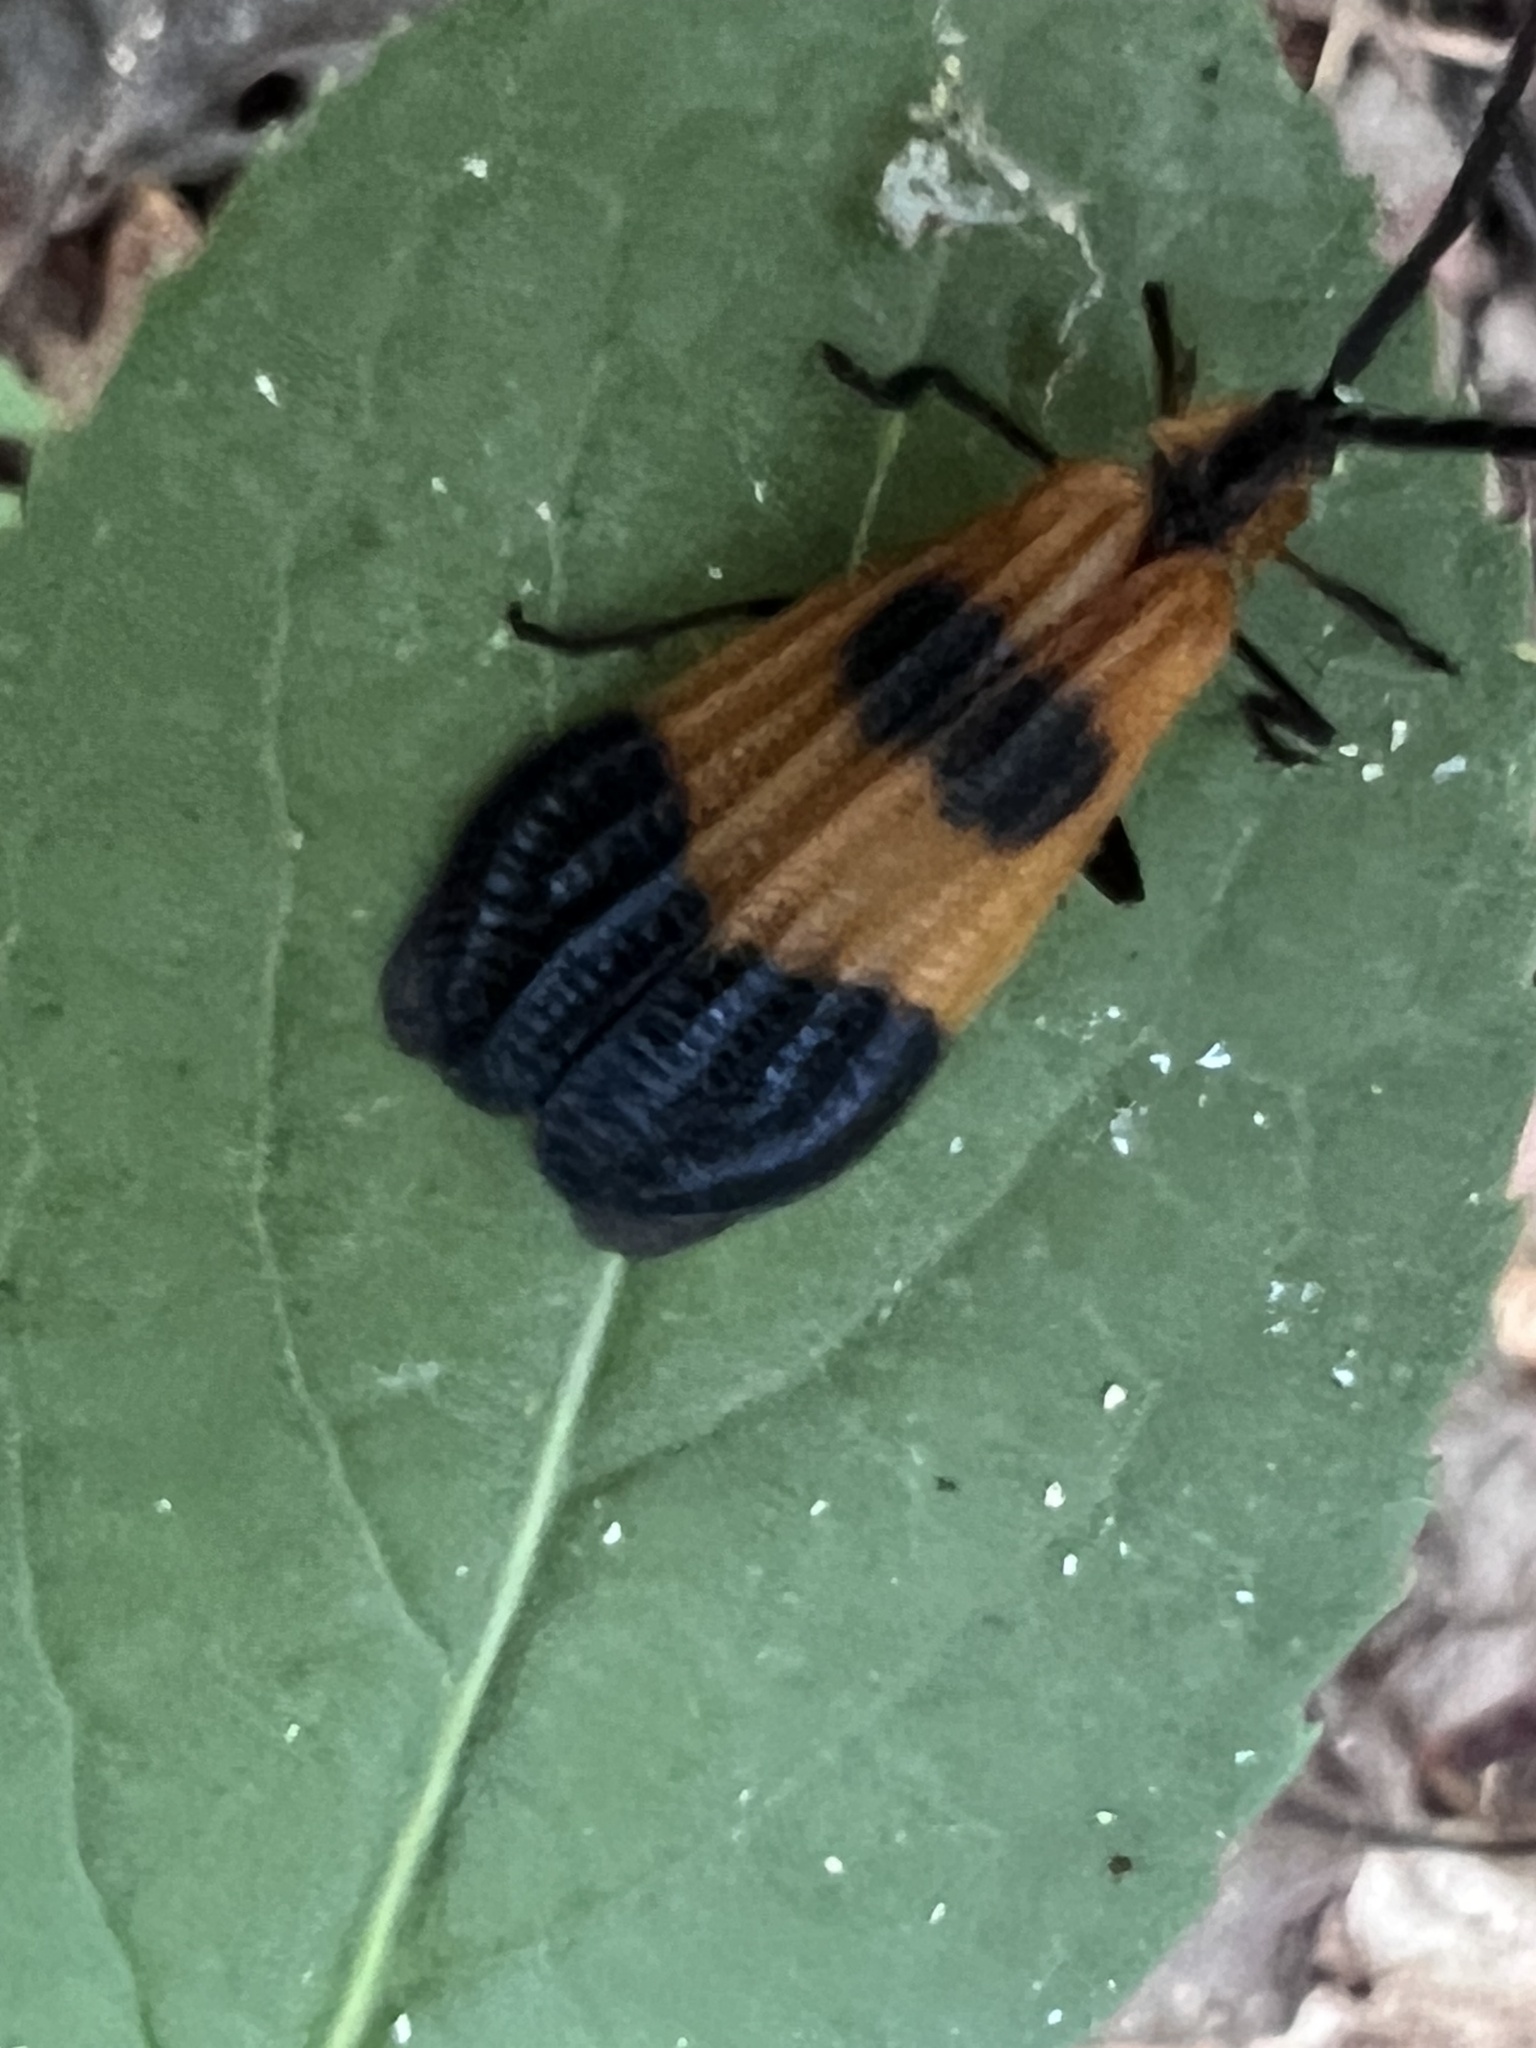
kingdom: Animalia
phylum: Arthropoda
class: Insecta
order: Coleoptera
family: Lycidae
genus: Calopteron
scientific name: Calopteron terminale
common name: End band net-winged beetle
